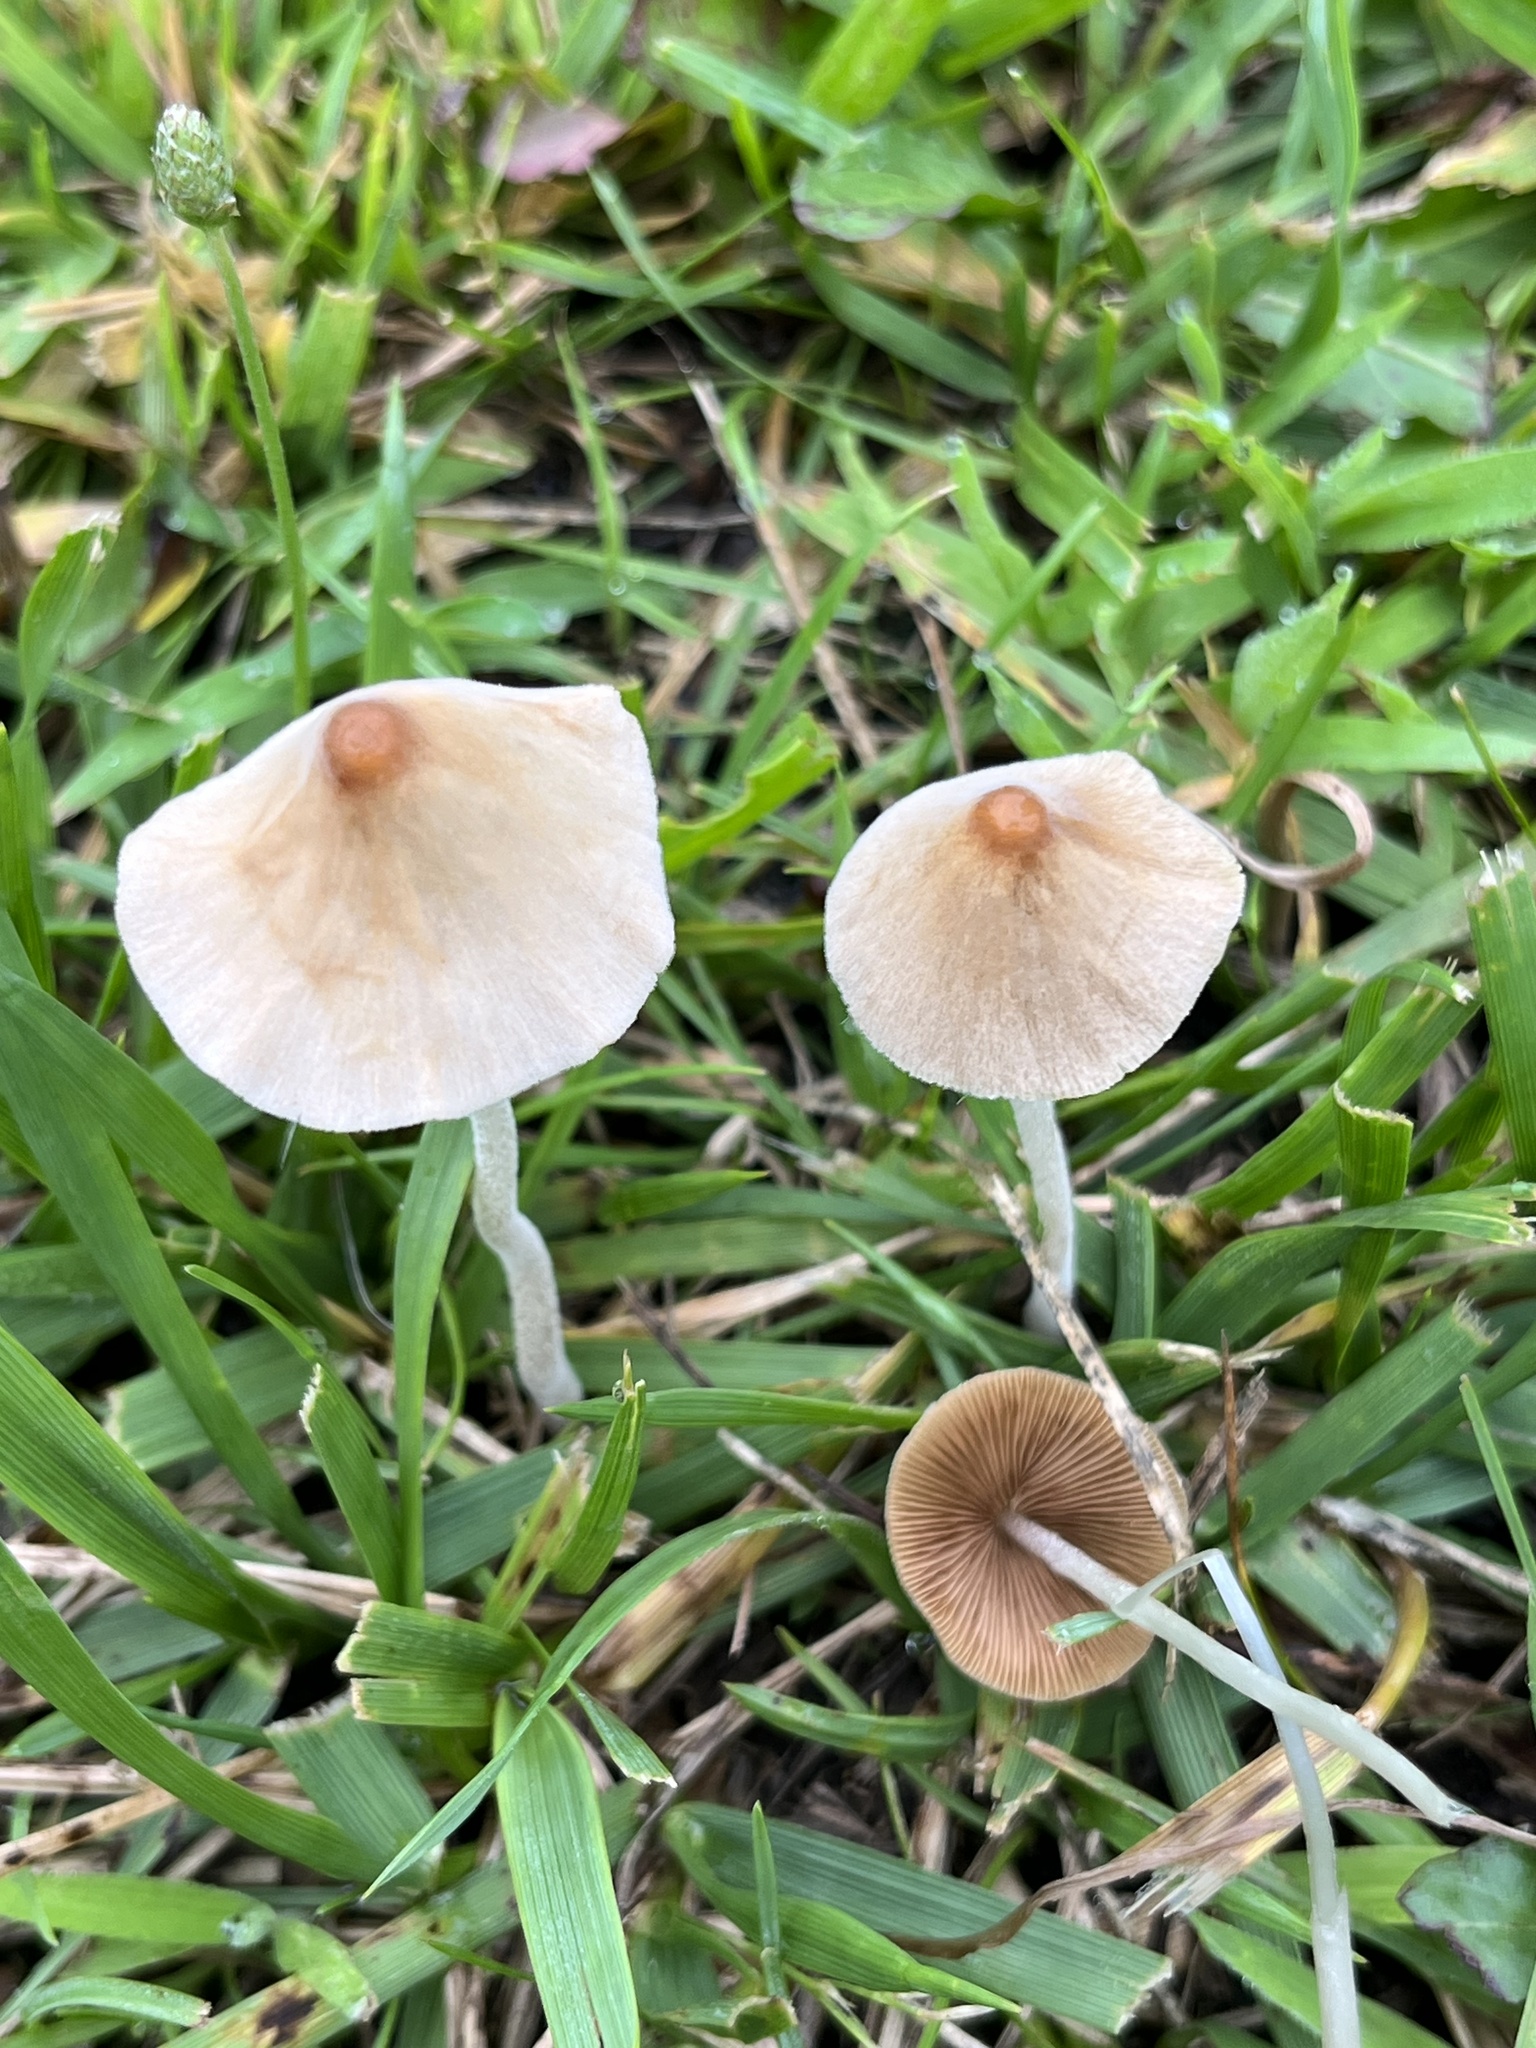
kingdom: Fungi
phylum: Basidiomycota
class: Agaricomycetes
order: Agaricales
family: Bolbitiaceae
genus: Conocybe
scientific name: Conocybe apala
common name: Milky conecap
